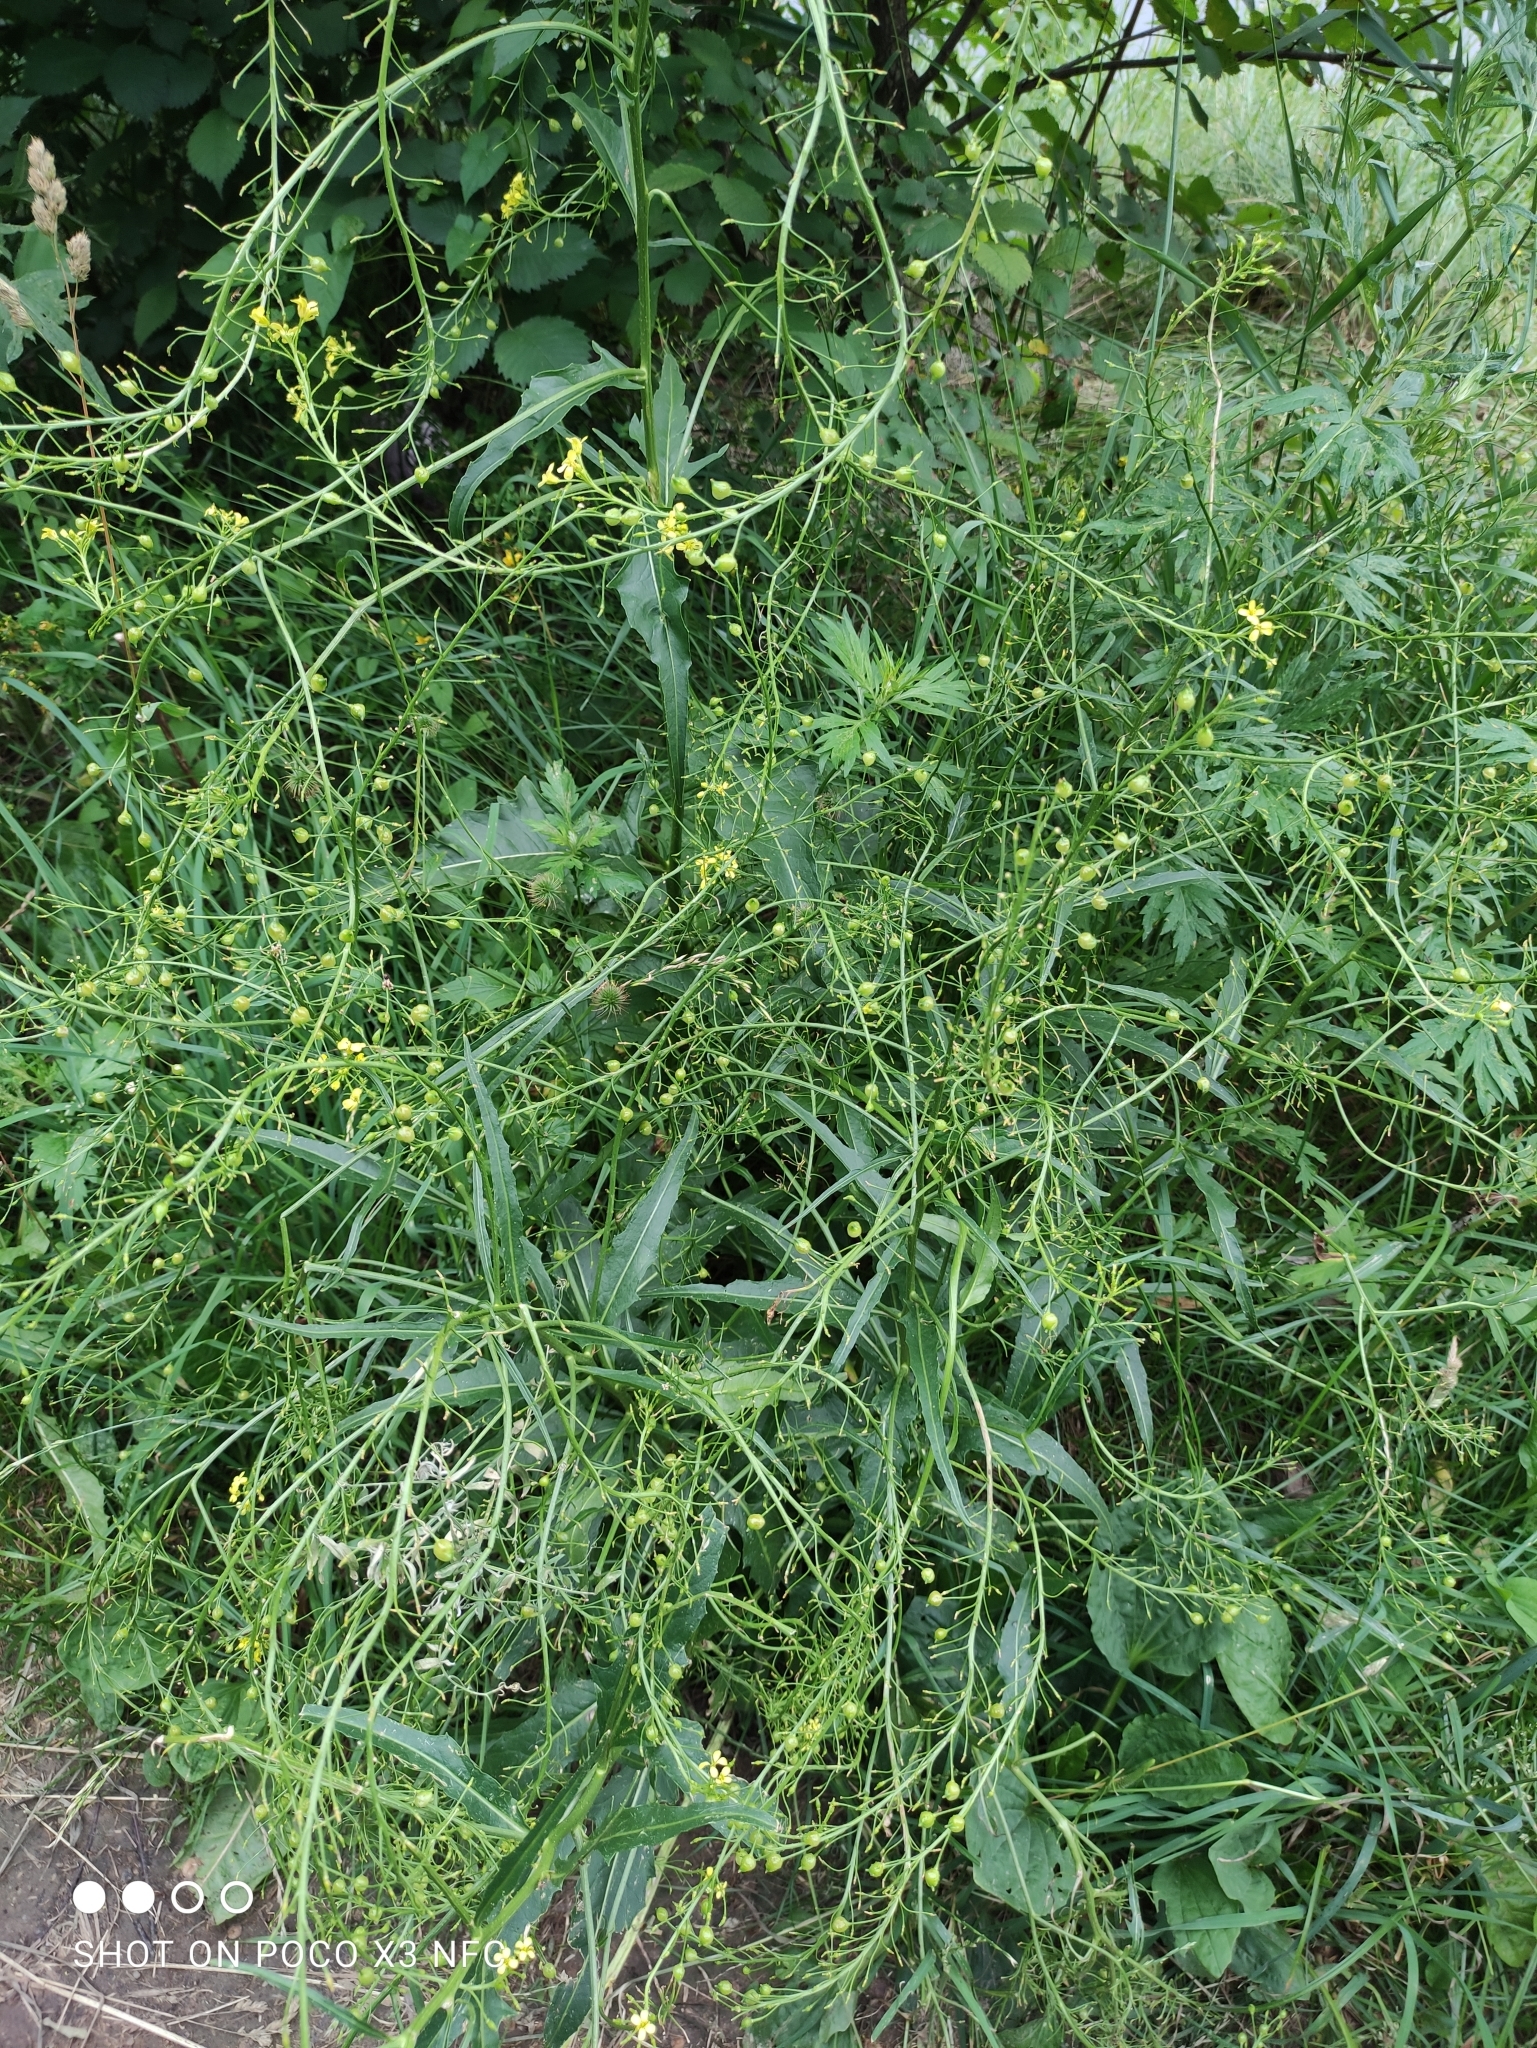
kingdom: Plantae
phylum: Tracheophyta
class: Magnoliopsida
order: Brassicales
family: Brassicaceae
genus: Bunias
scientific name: Bunias orientalis
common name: Warty-cabbage
